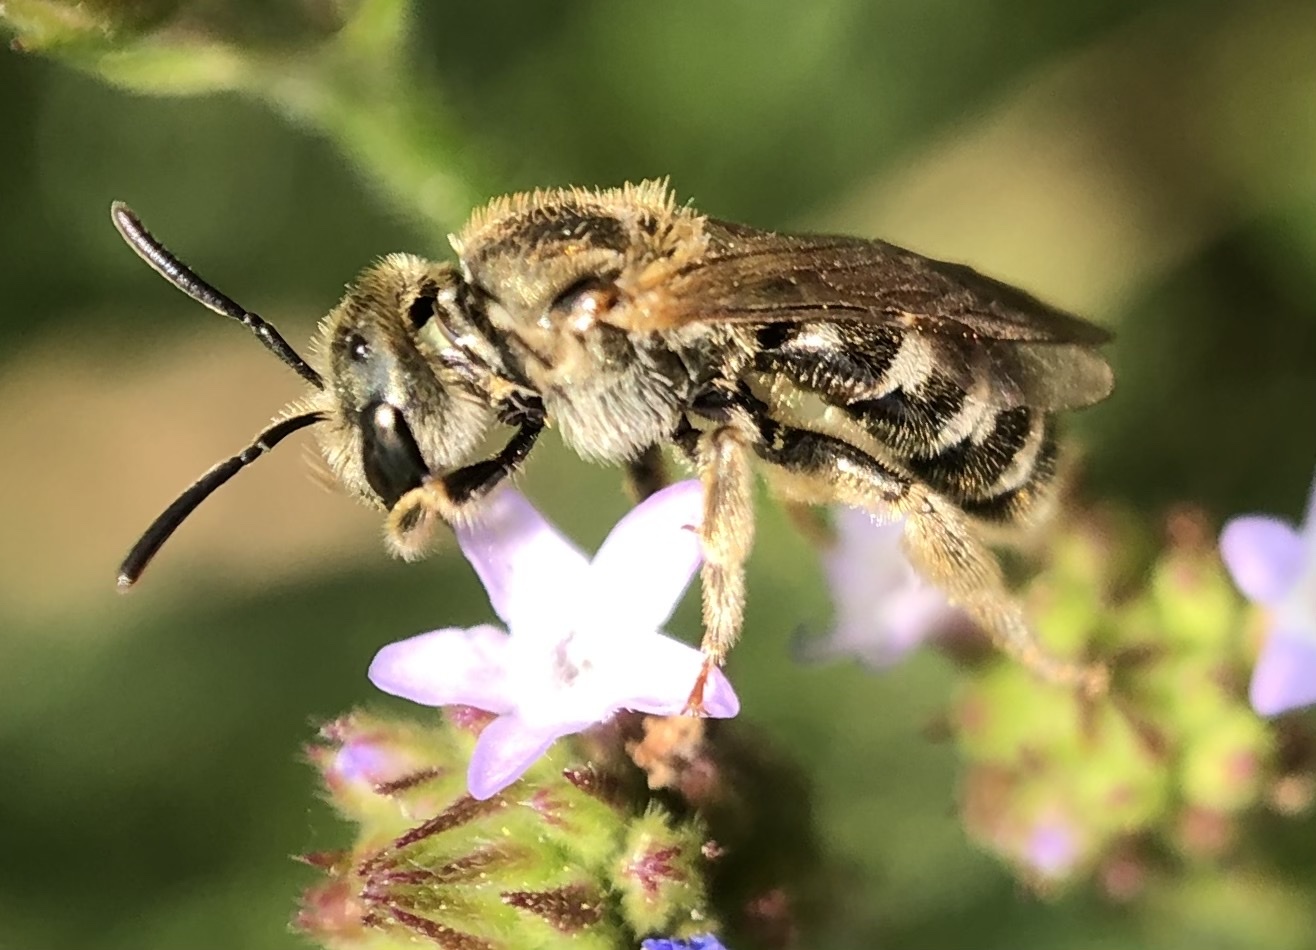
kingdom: Animalia
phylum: Arthropoda
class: Insecta
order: Hymenoptera
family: Halictidae
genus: Halictus
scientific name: Halictus confusus
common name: Southern bronze furrow bee
